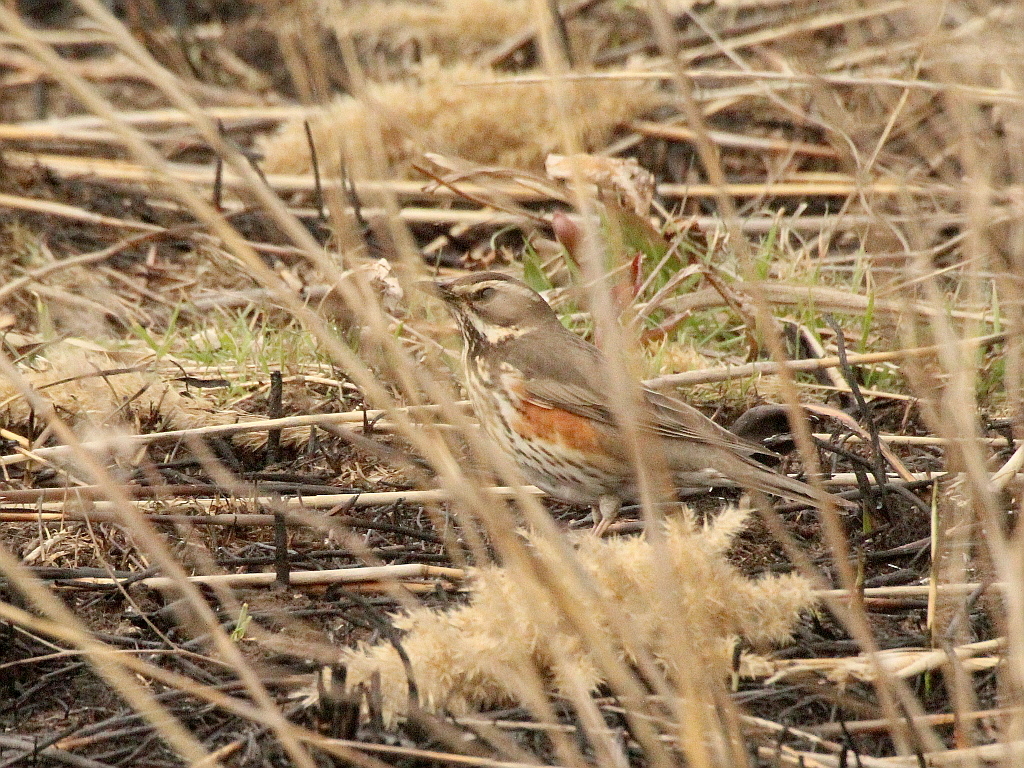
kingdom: Animalia
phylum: Chordata
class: Aves
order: Passeriformes
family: Turdidae
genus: Turdus
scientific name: Turdus iliacus
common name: Redwing
